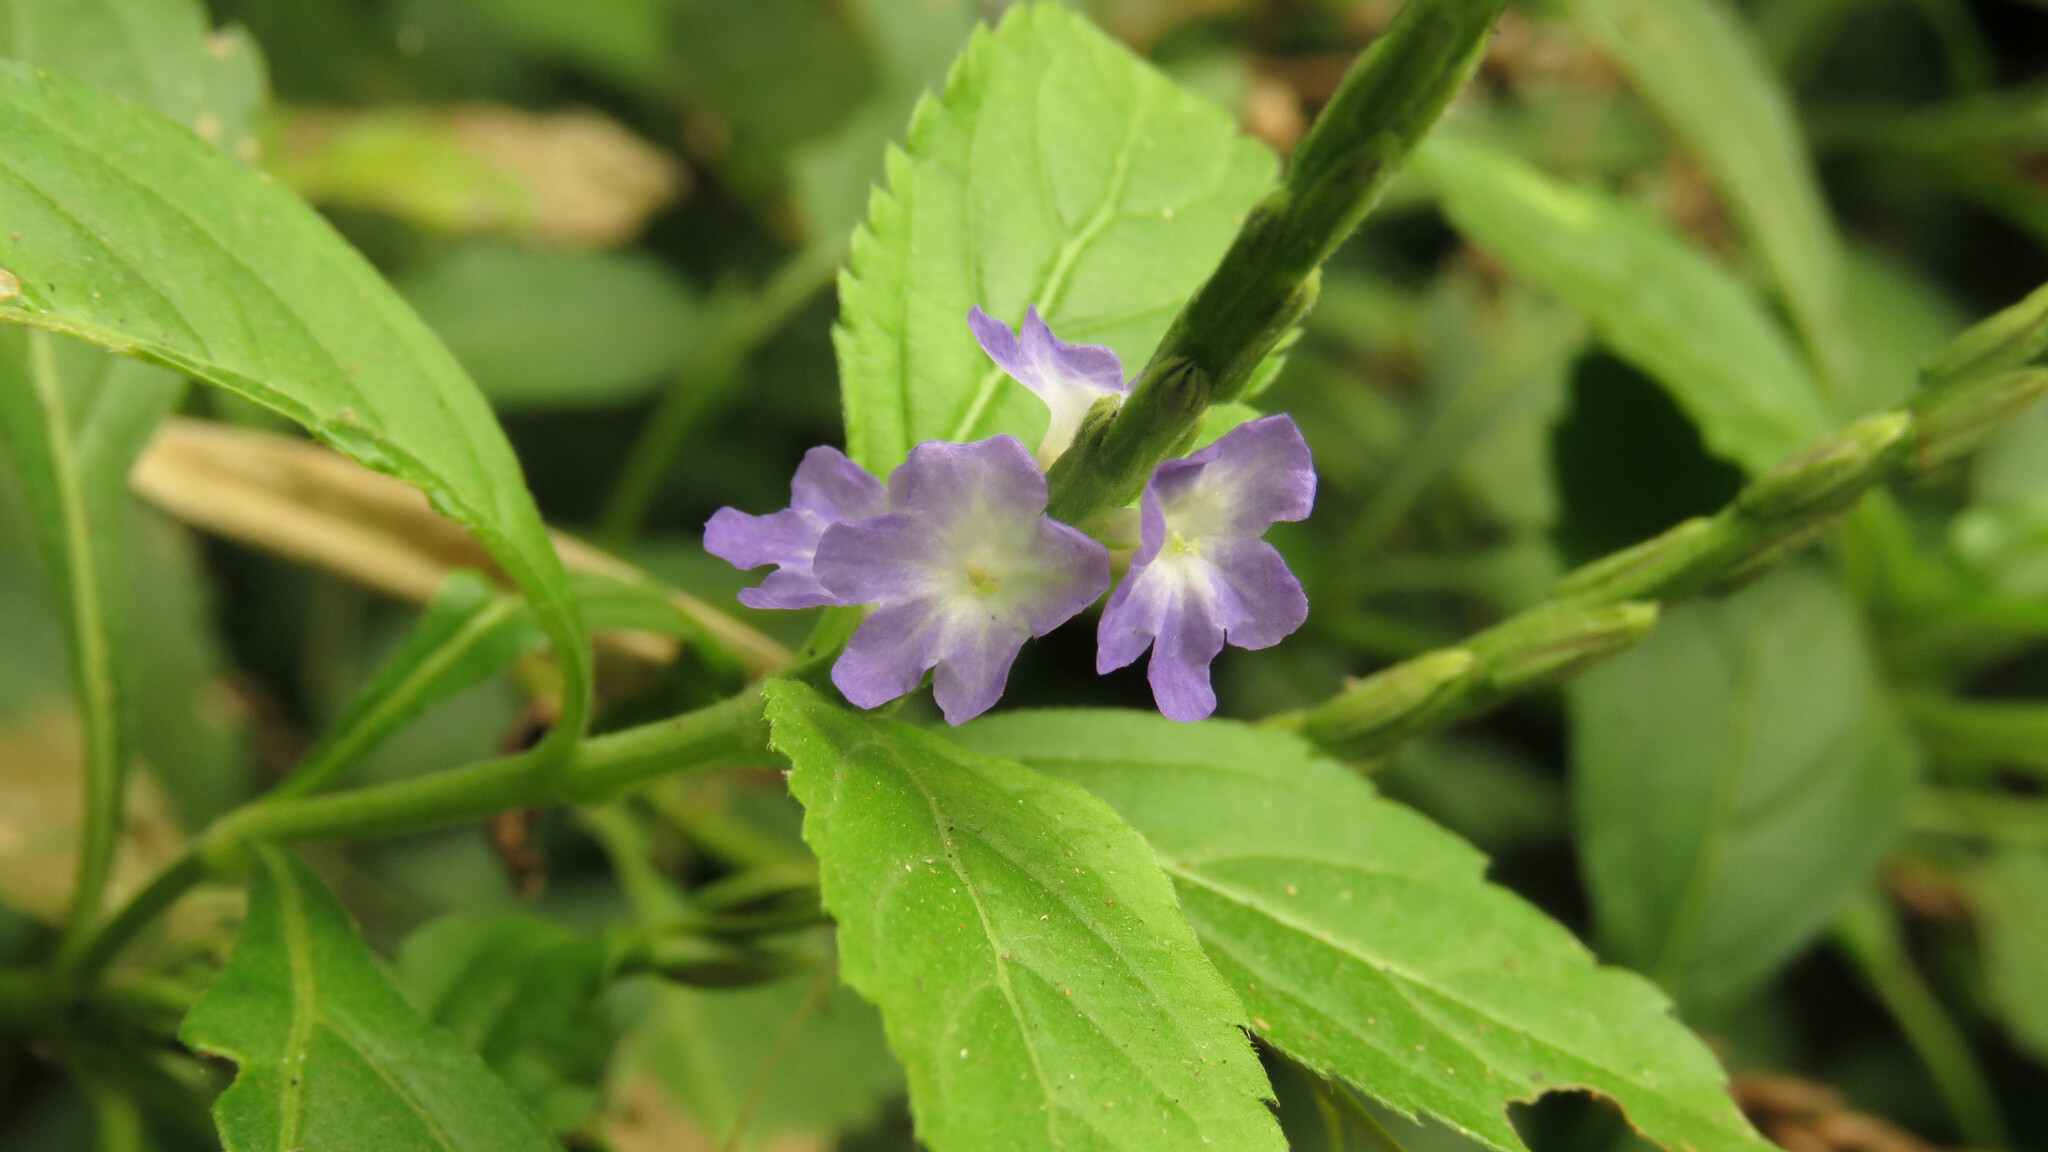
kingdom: Plantae
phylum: Tracheophyta
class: Magnoliopsida
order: Lamiales
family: Verbenaceae
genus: Stachytarpheta
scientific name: Stachytarpheta cayennensis
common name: Cayenne porterweed
